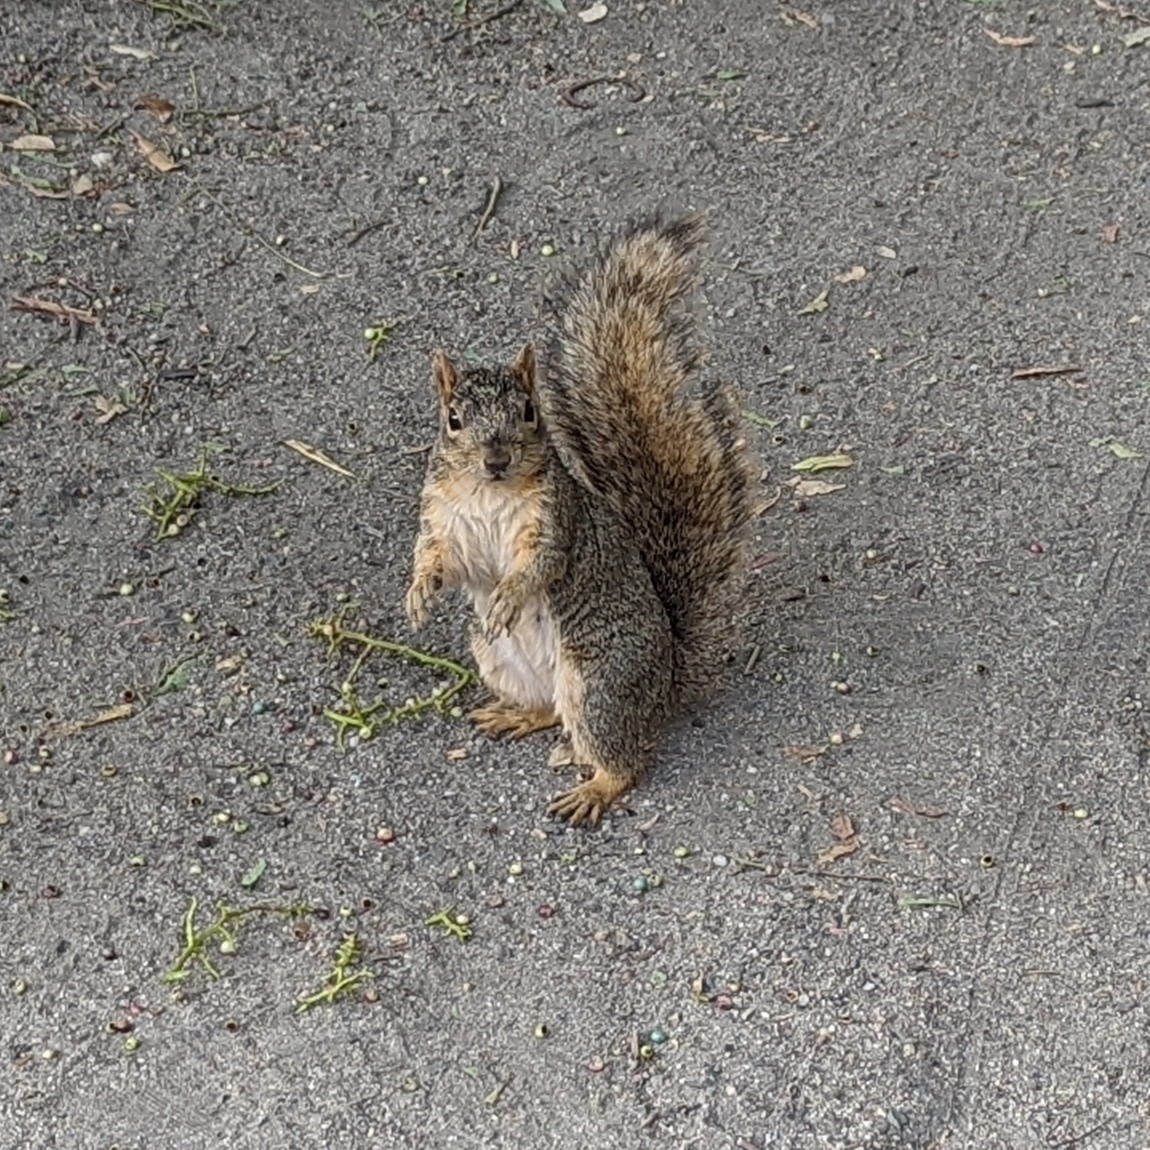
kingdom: Animalia
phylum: Chordata
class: Mammalia
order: Rodentia
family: Sciuridae
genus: Sciurus
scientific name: Sciurus niger
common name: Fox squirrel
